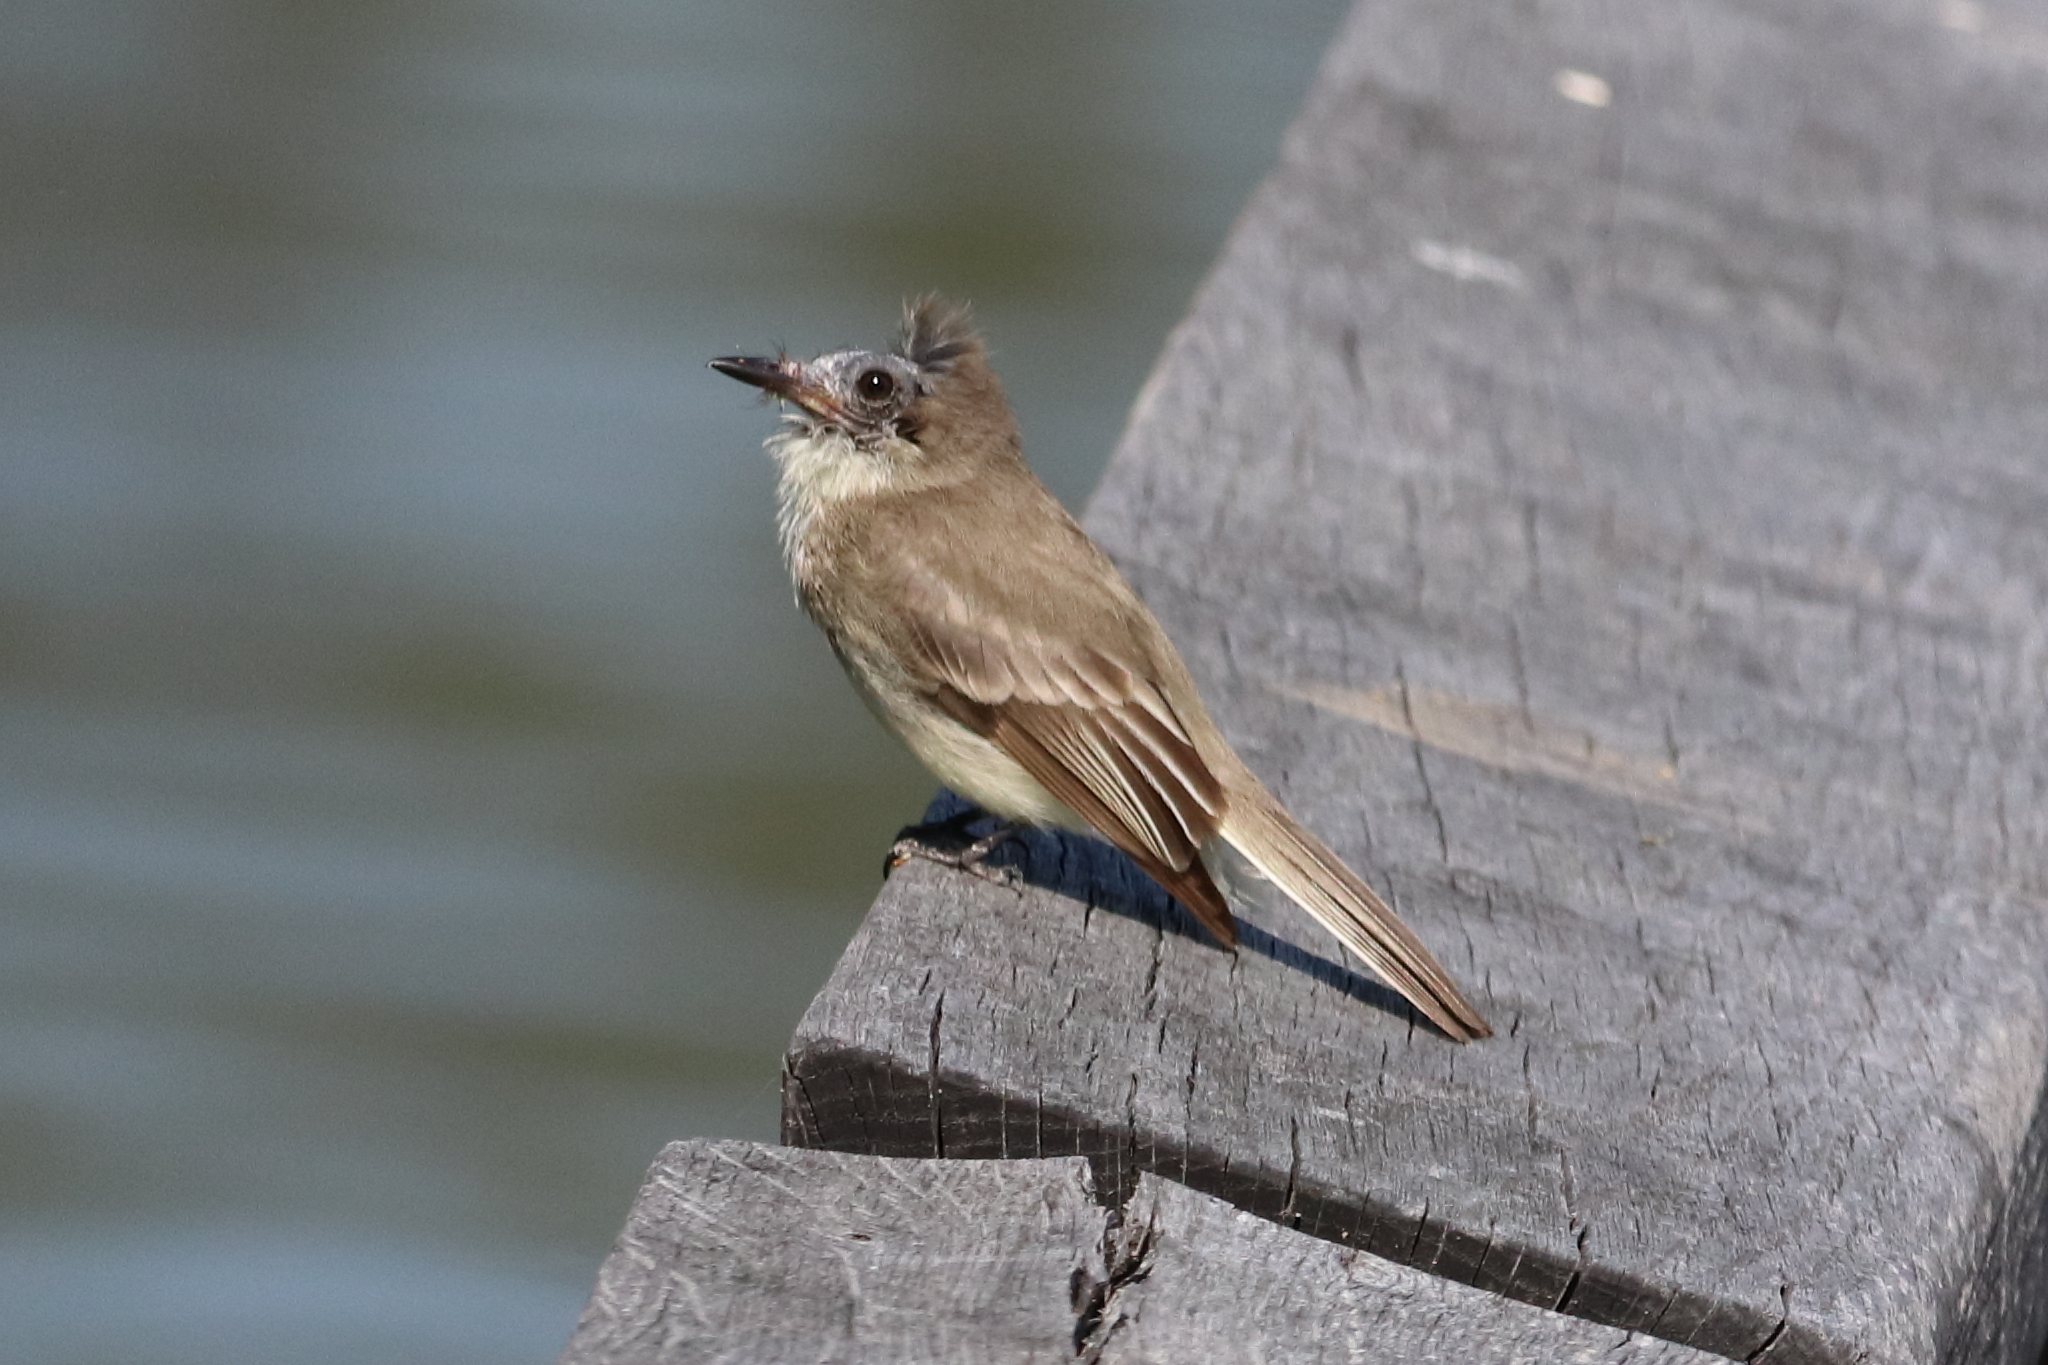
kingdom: Animalia
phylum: Chordata
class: Aves
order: Passeriformes
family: Tyrannidae
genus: Sayornis
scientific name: Sayornis phoebe
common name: Eastern phoebe
